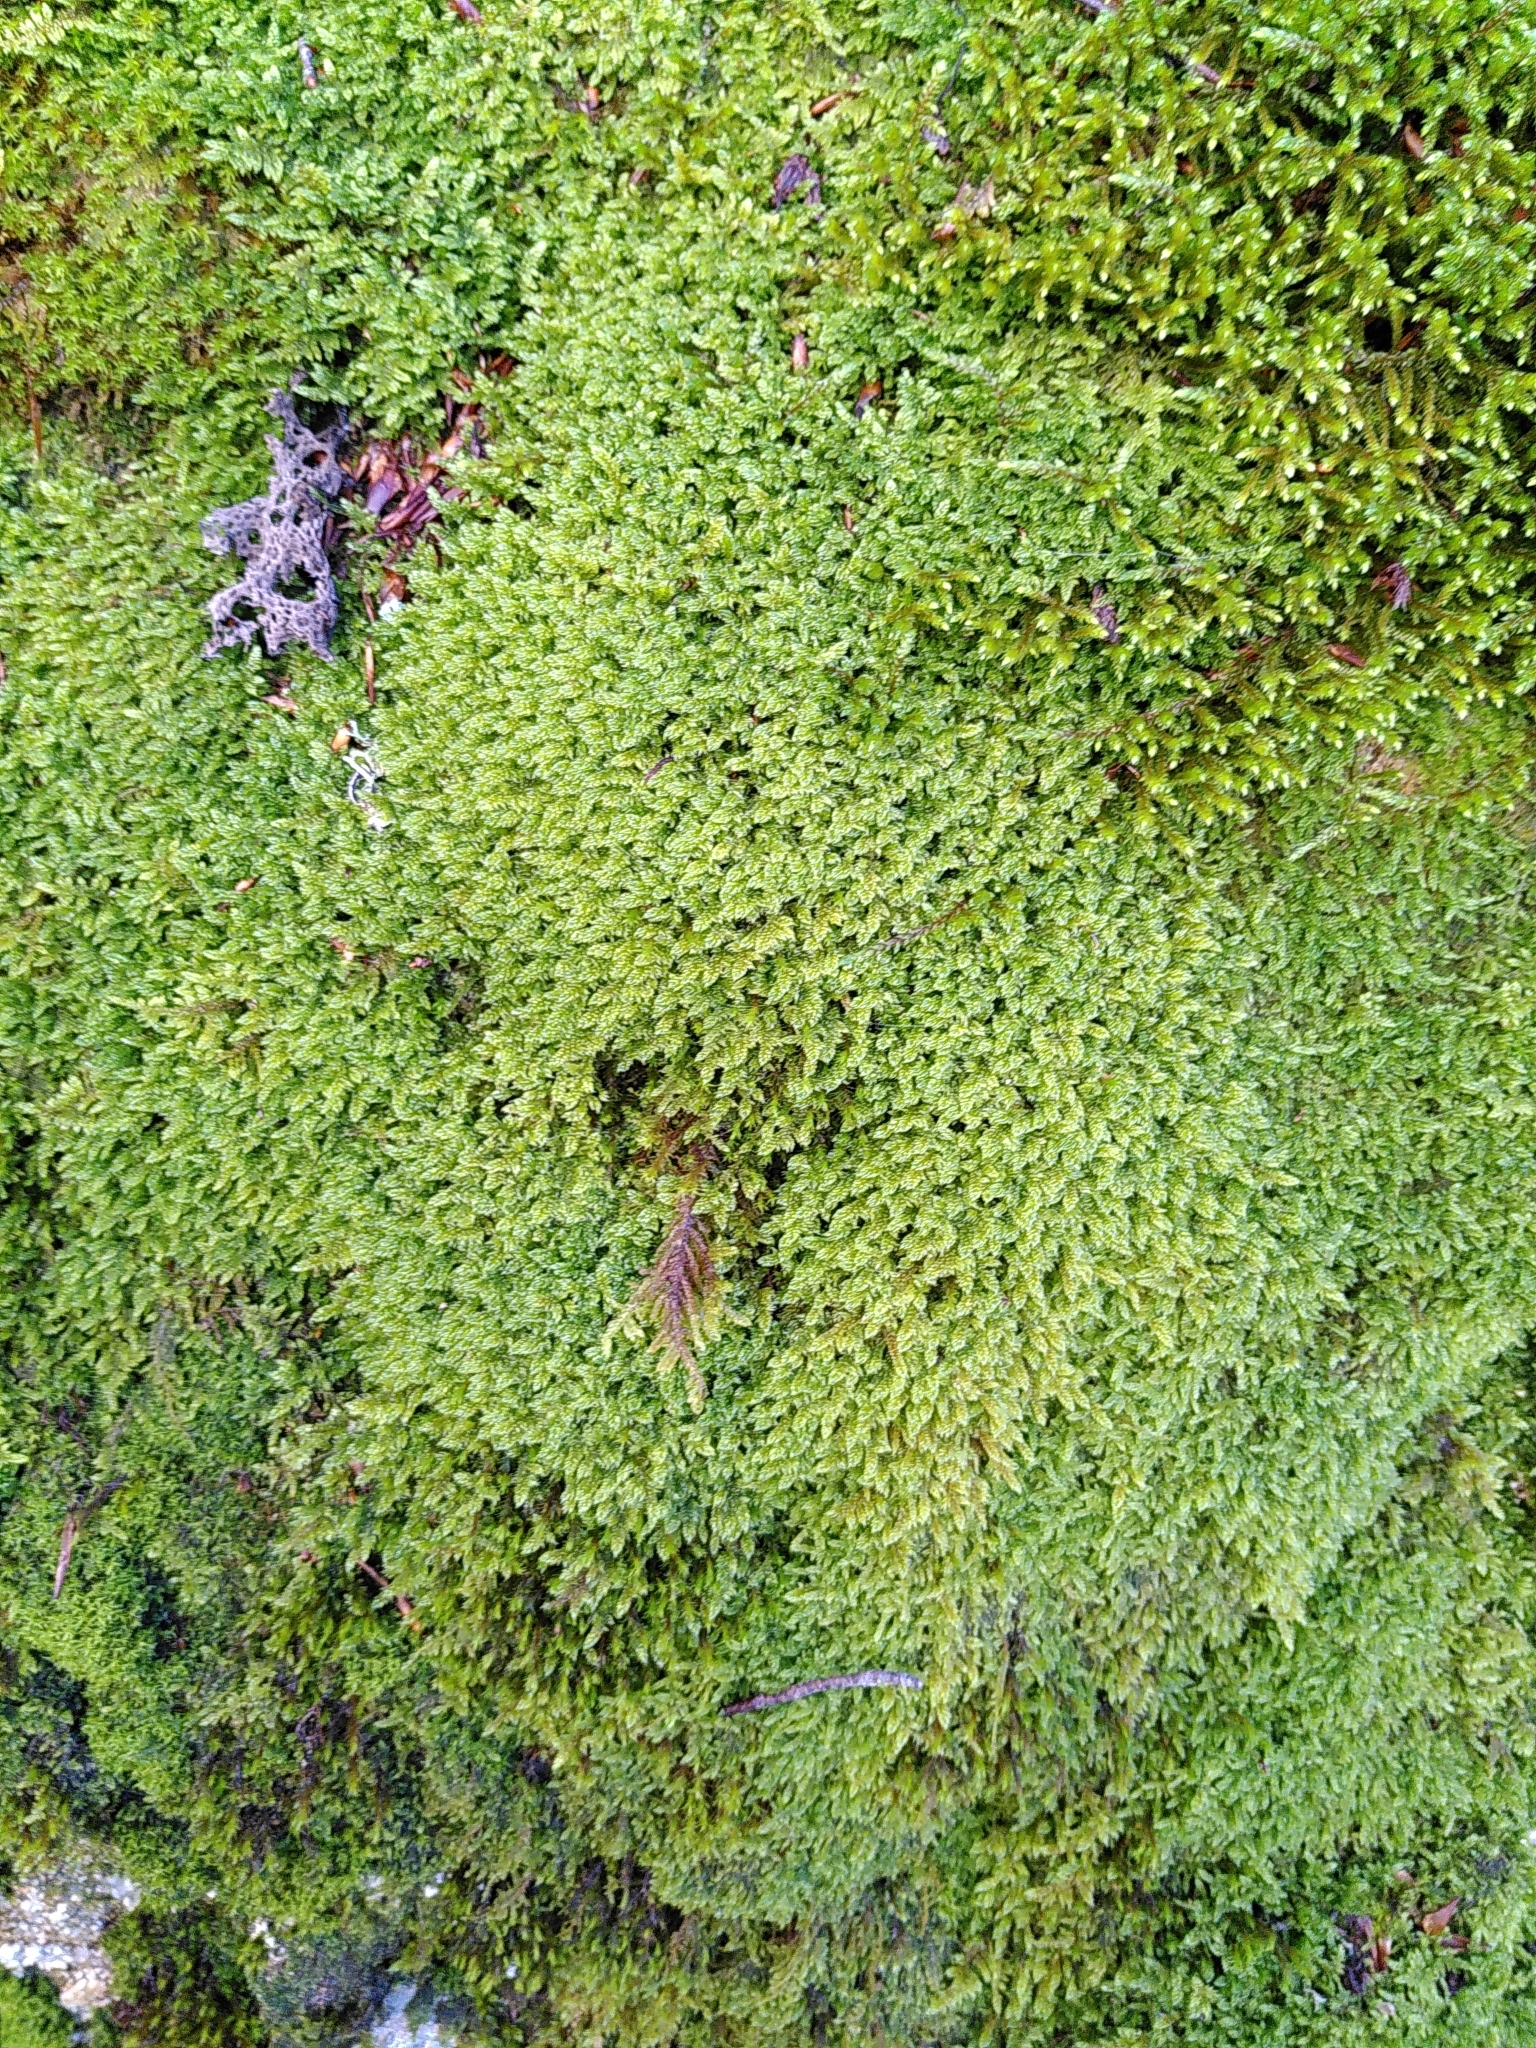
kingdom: Plantae
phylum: Bryophyta
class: Bryopsida
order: Hypnales
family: Hypnaceae
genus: Hypnum
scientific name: Hypnum cupressiforme
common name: Cypress-leaved plait-moss
